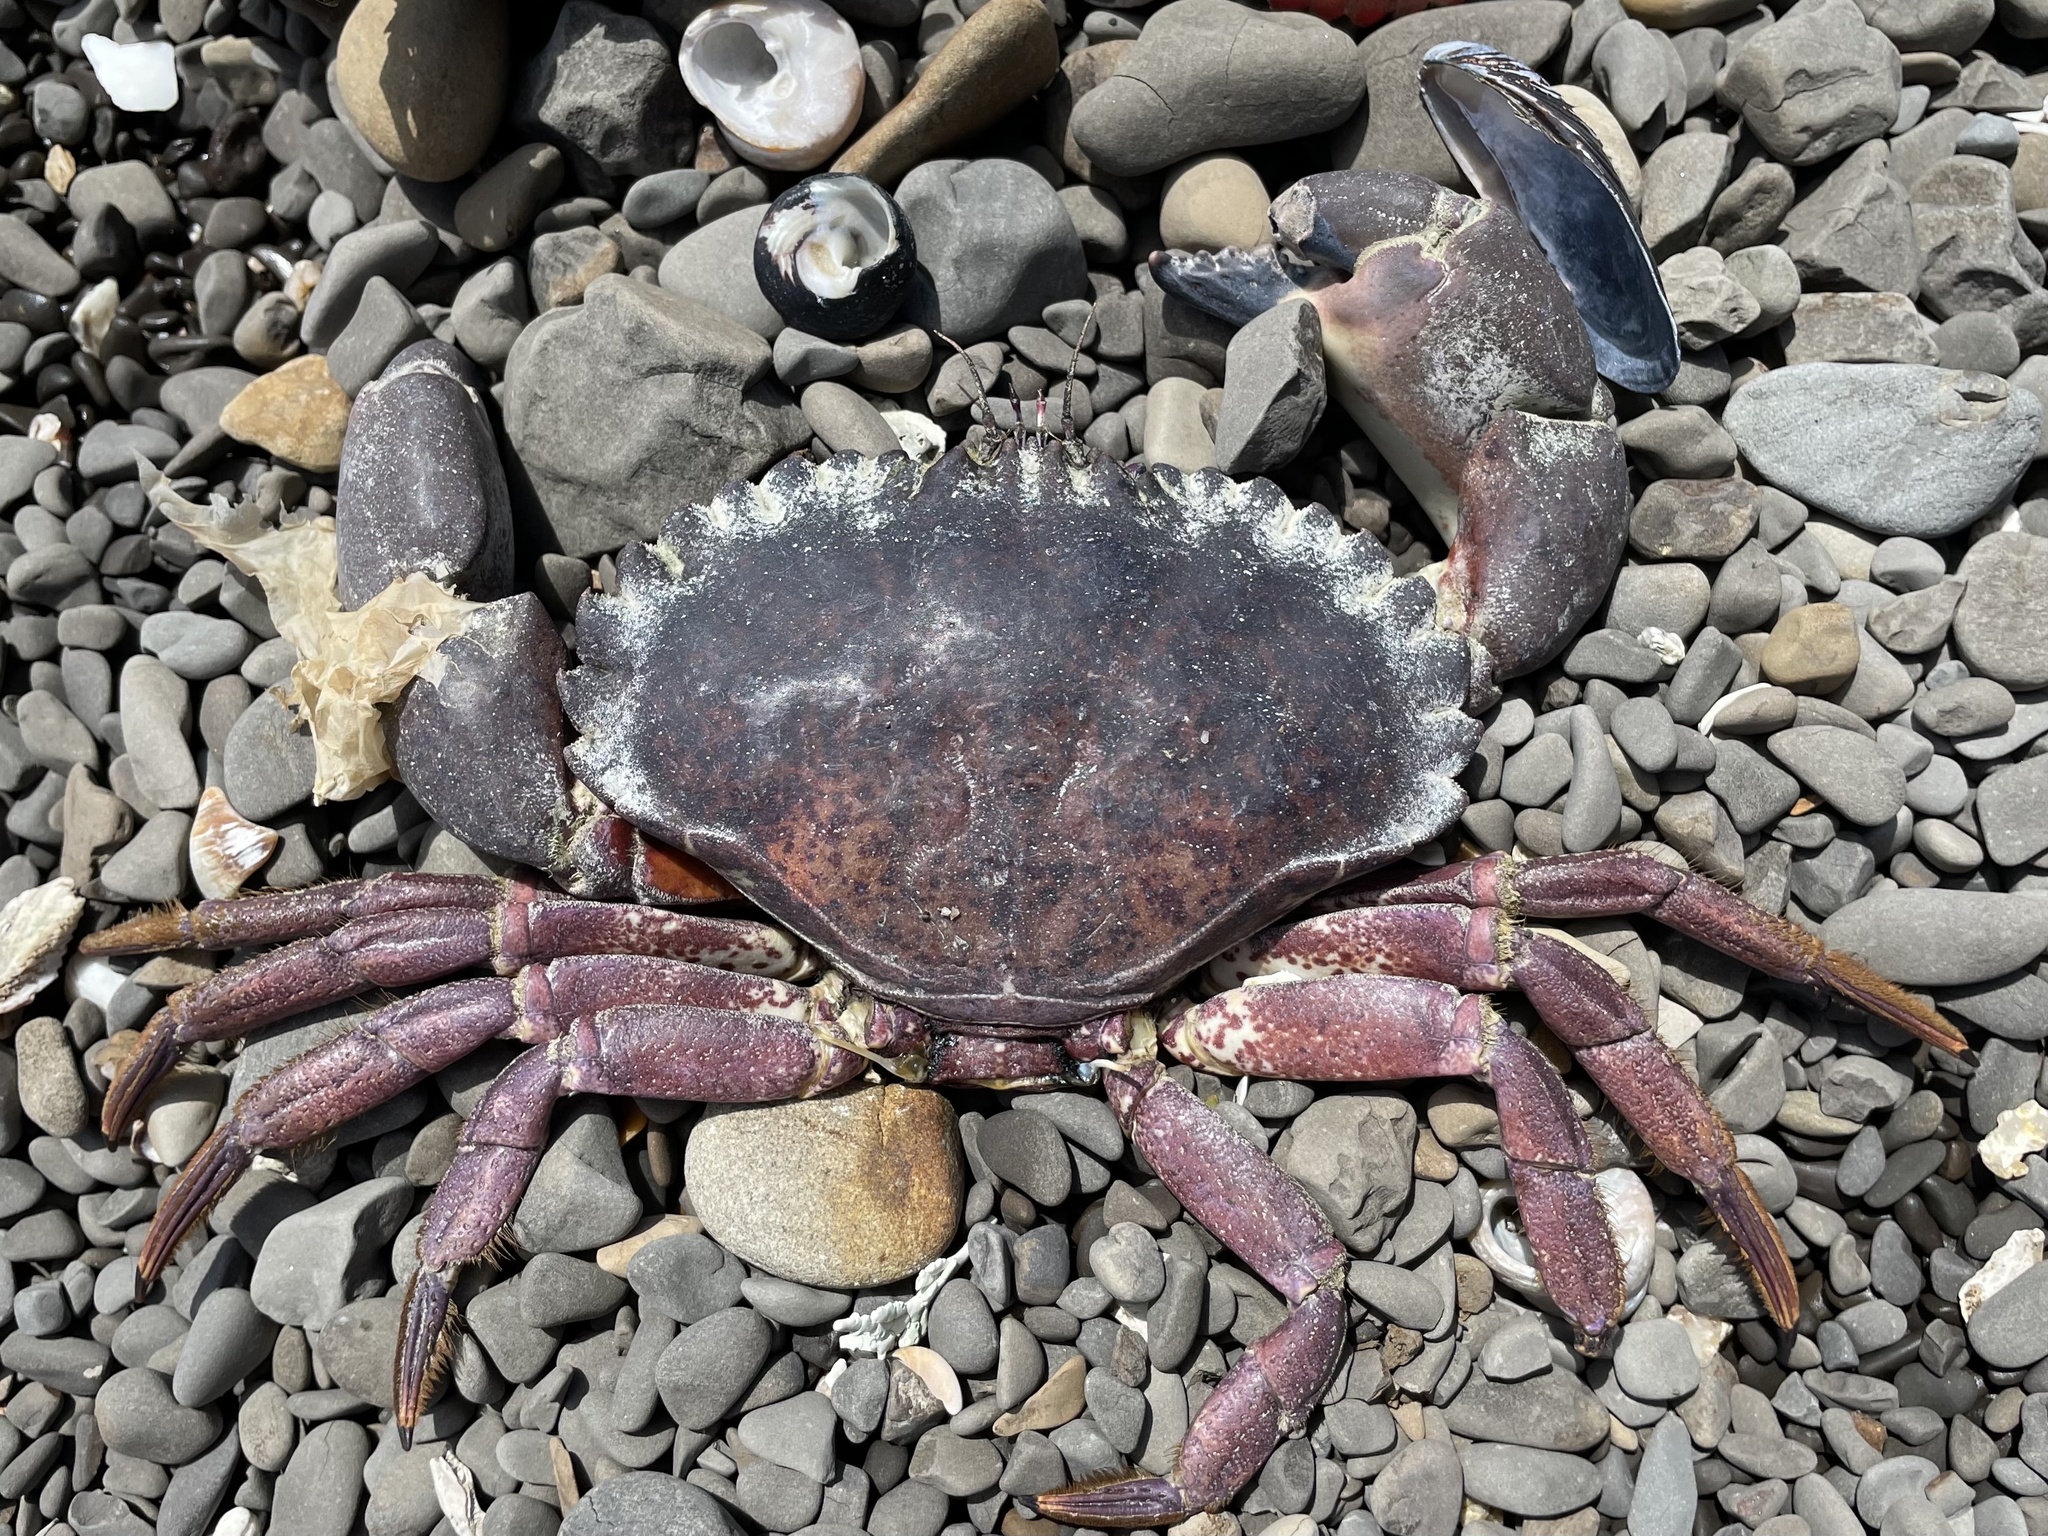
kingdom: Animalia
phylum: Arthropoda
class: Malacostraca
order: Decapoda
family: Cancridae
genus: Romaleon
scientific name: Romaleon antennarium
